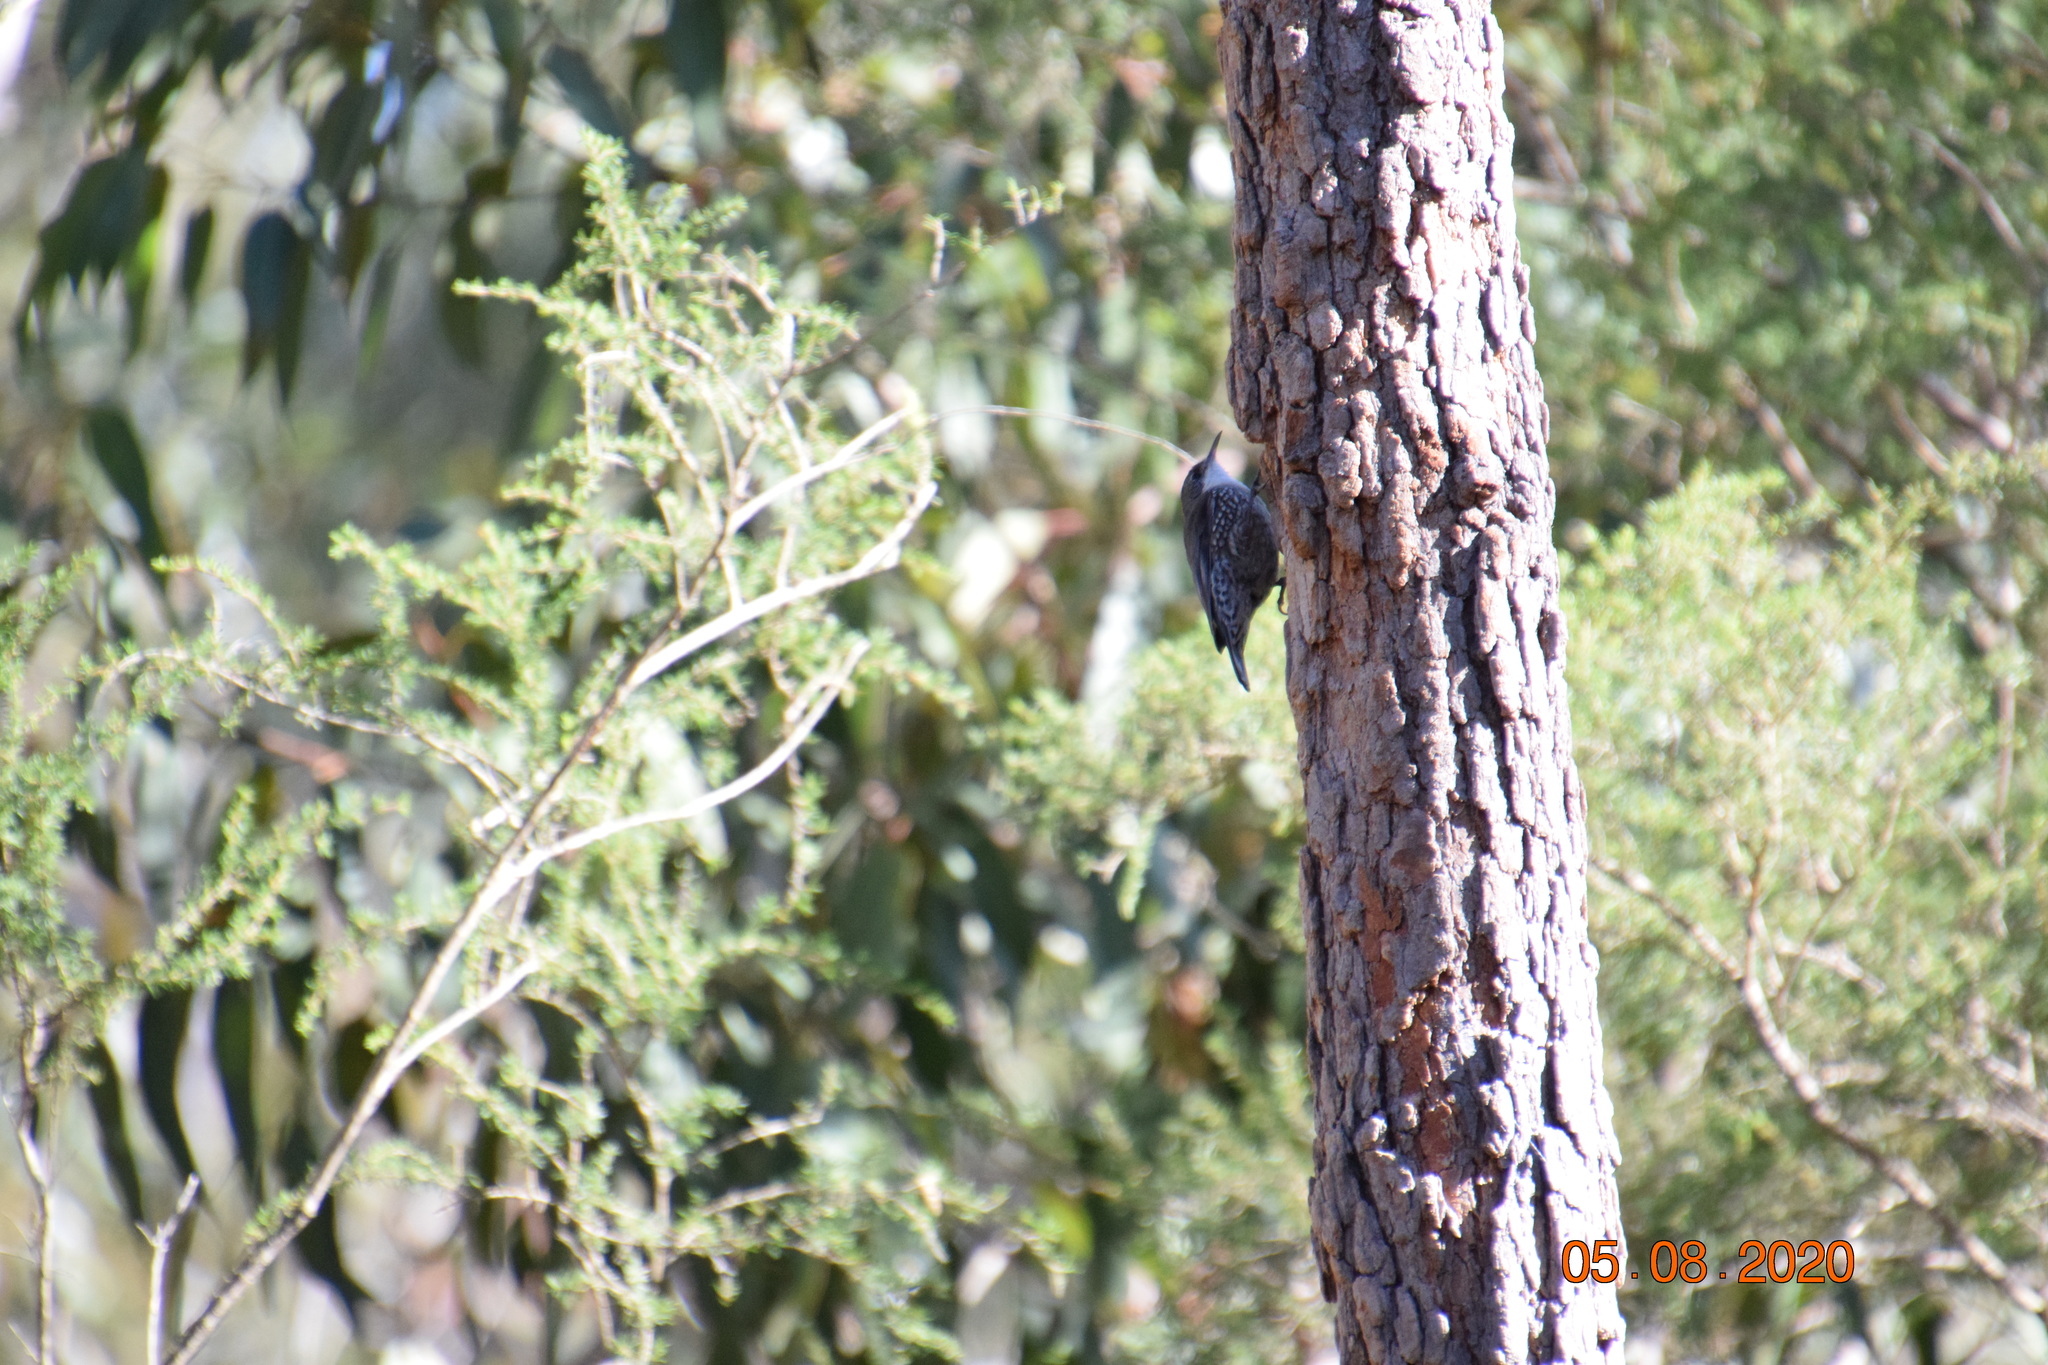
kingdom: Animalia
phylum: Chordata
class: Aves
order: Passeriformes
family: Climacteridae
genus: Cormobates
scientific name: Cormobates leucophaea
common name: White-throated treecreeper
